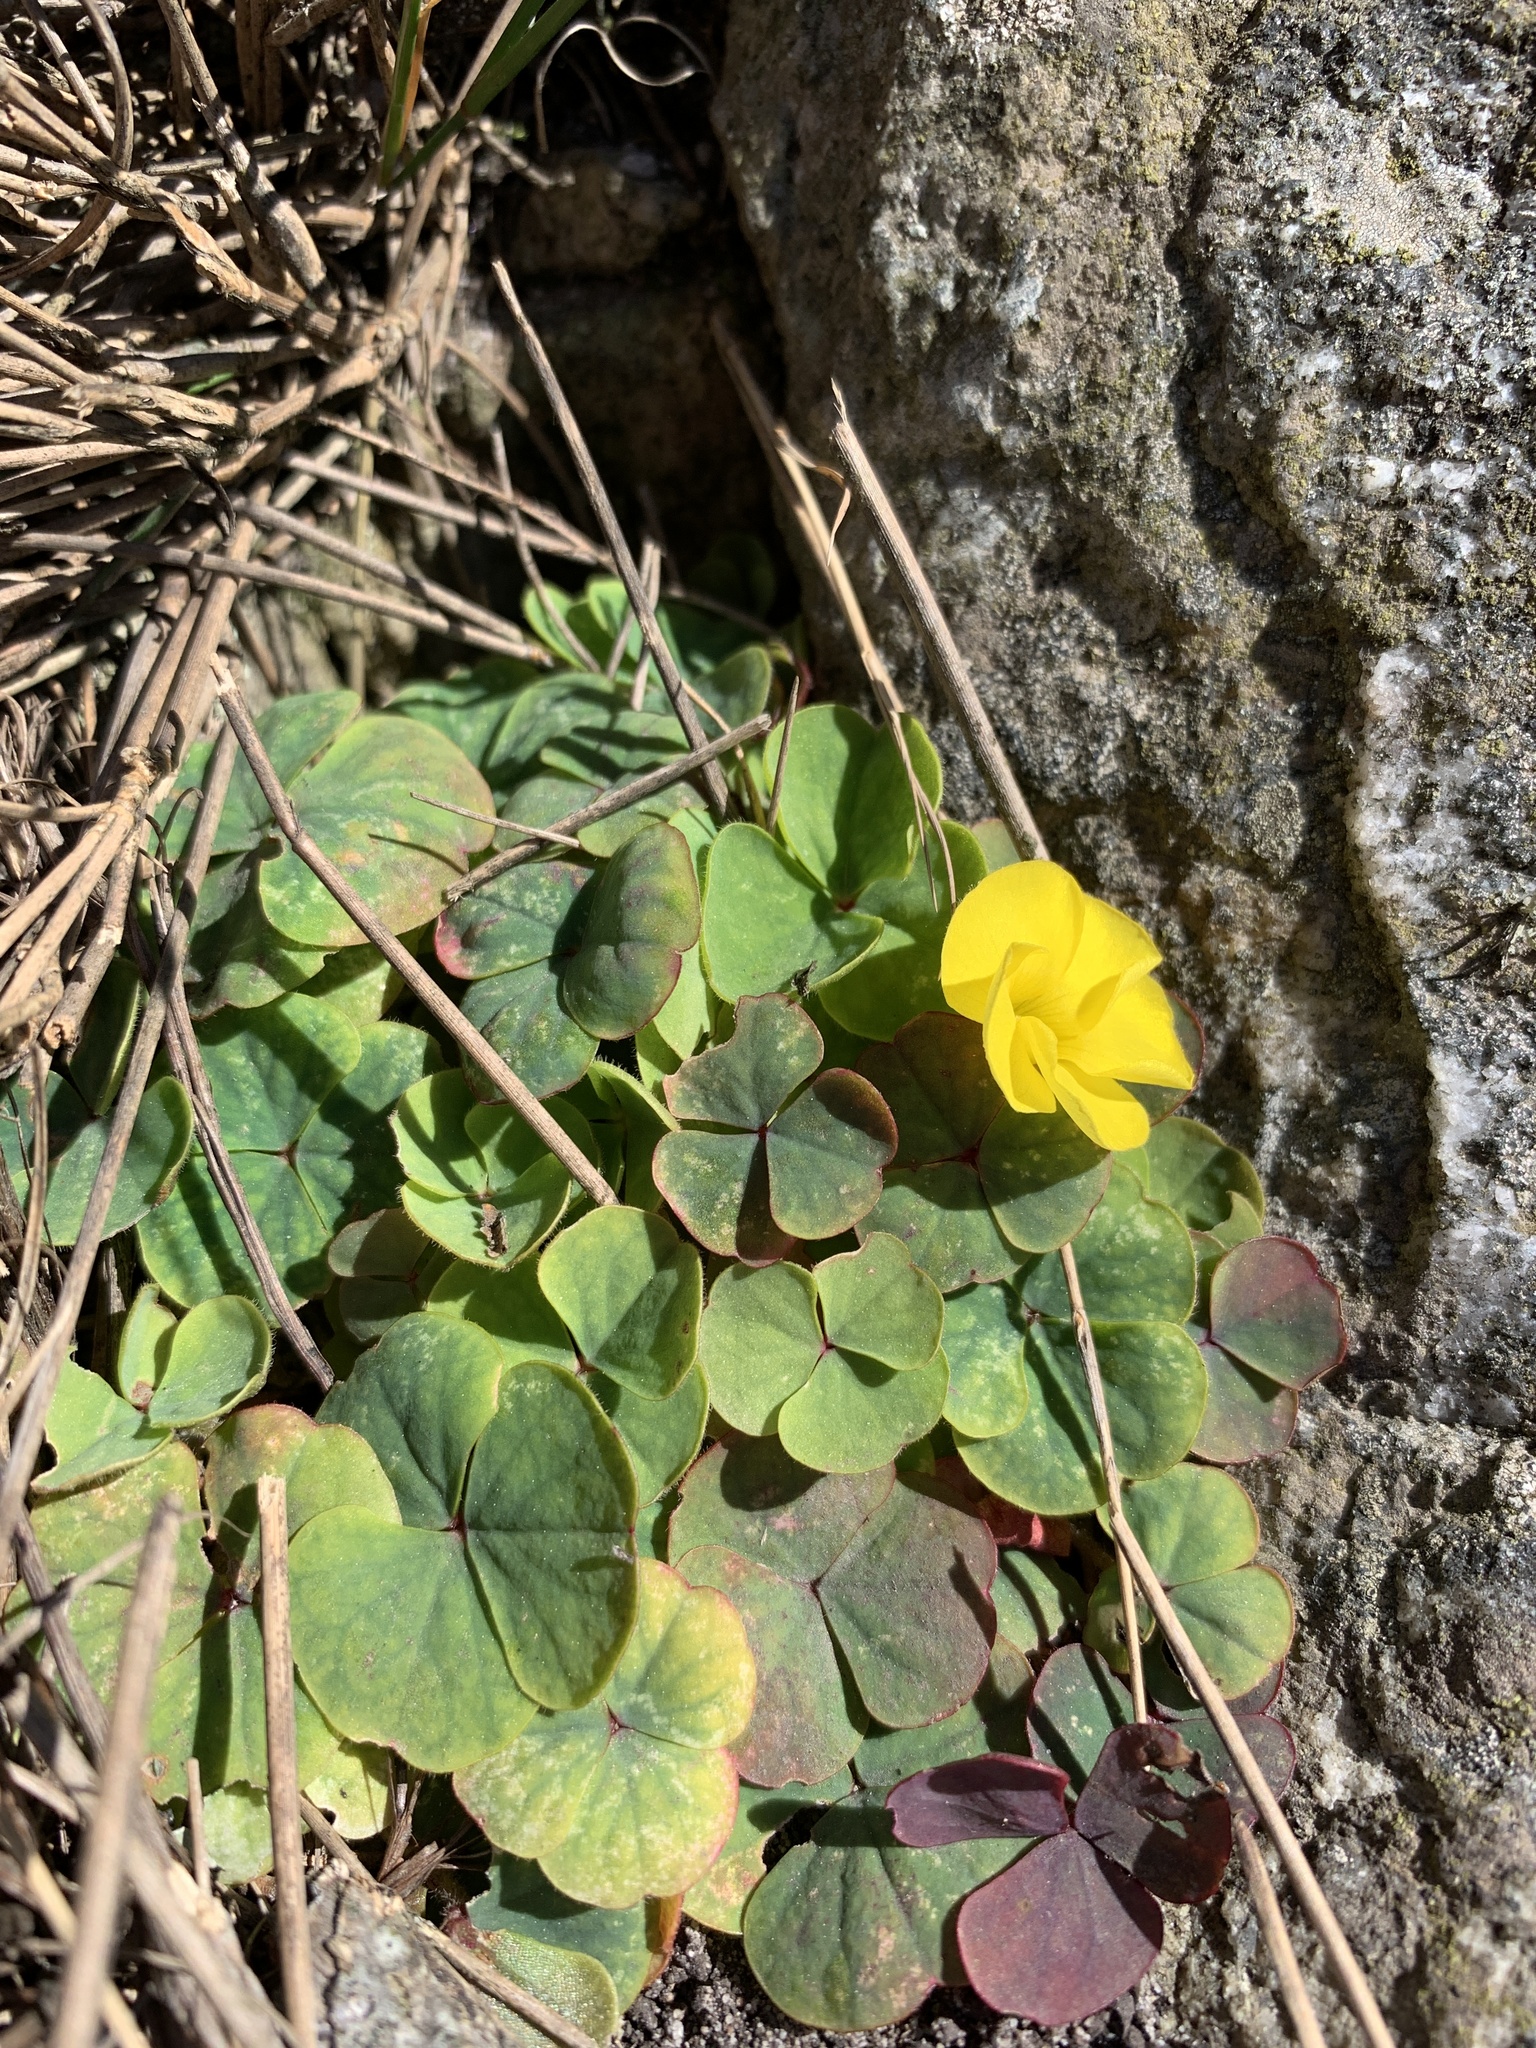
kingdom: Plantae
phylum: Tracheophyta
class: Magnoliopsida
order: Oxalidales
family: Oxalidaceae
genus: Oxalis
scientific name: Oxalis luteola
